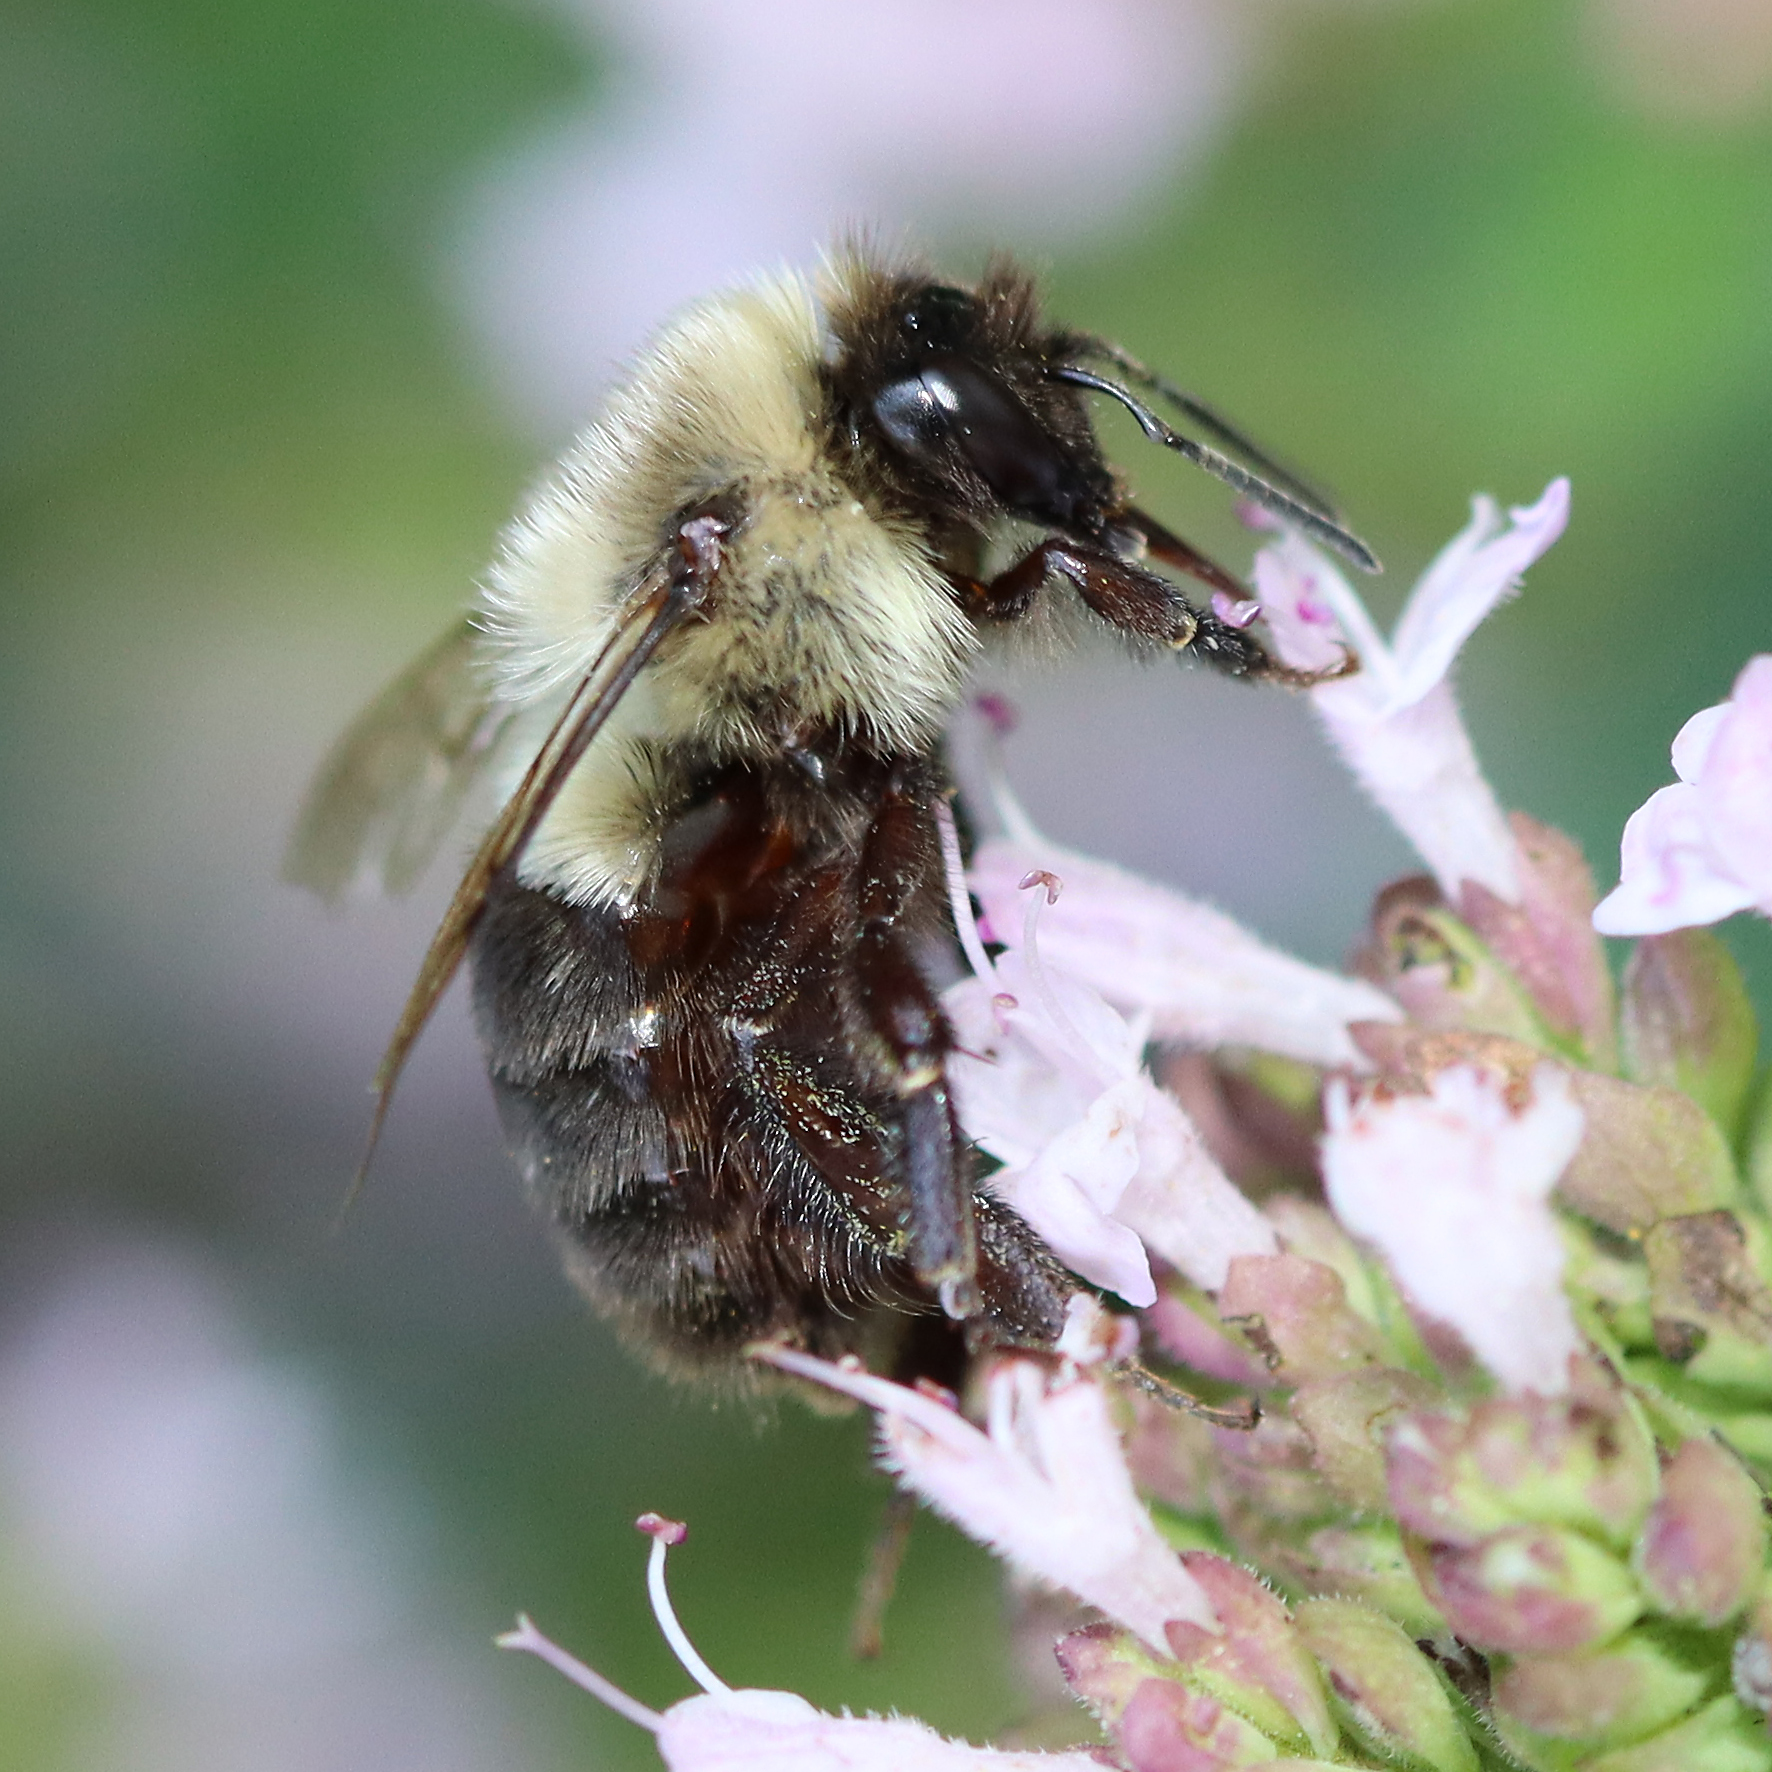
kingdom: Animalia
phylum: Arthropoda
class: Insecta
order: Hymenoptera
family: Apidae
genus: Bombus
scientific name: Bombus impatiens
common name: Common eastern bumble bee
